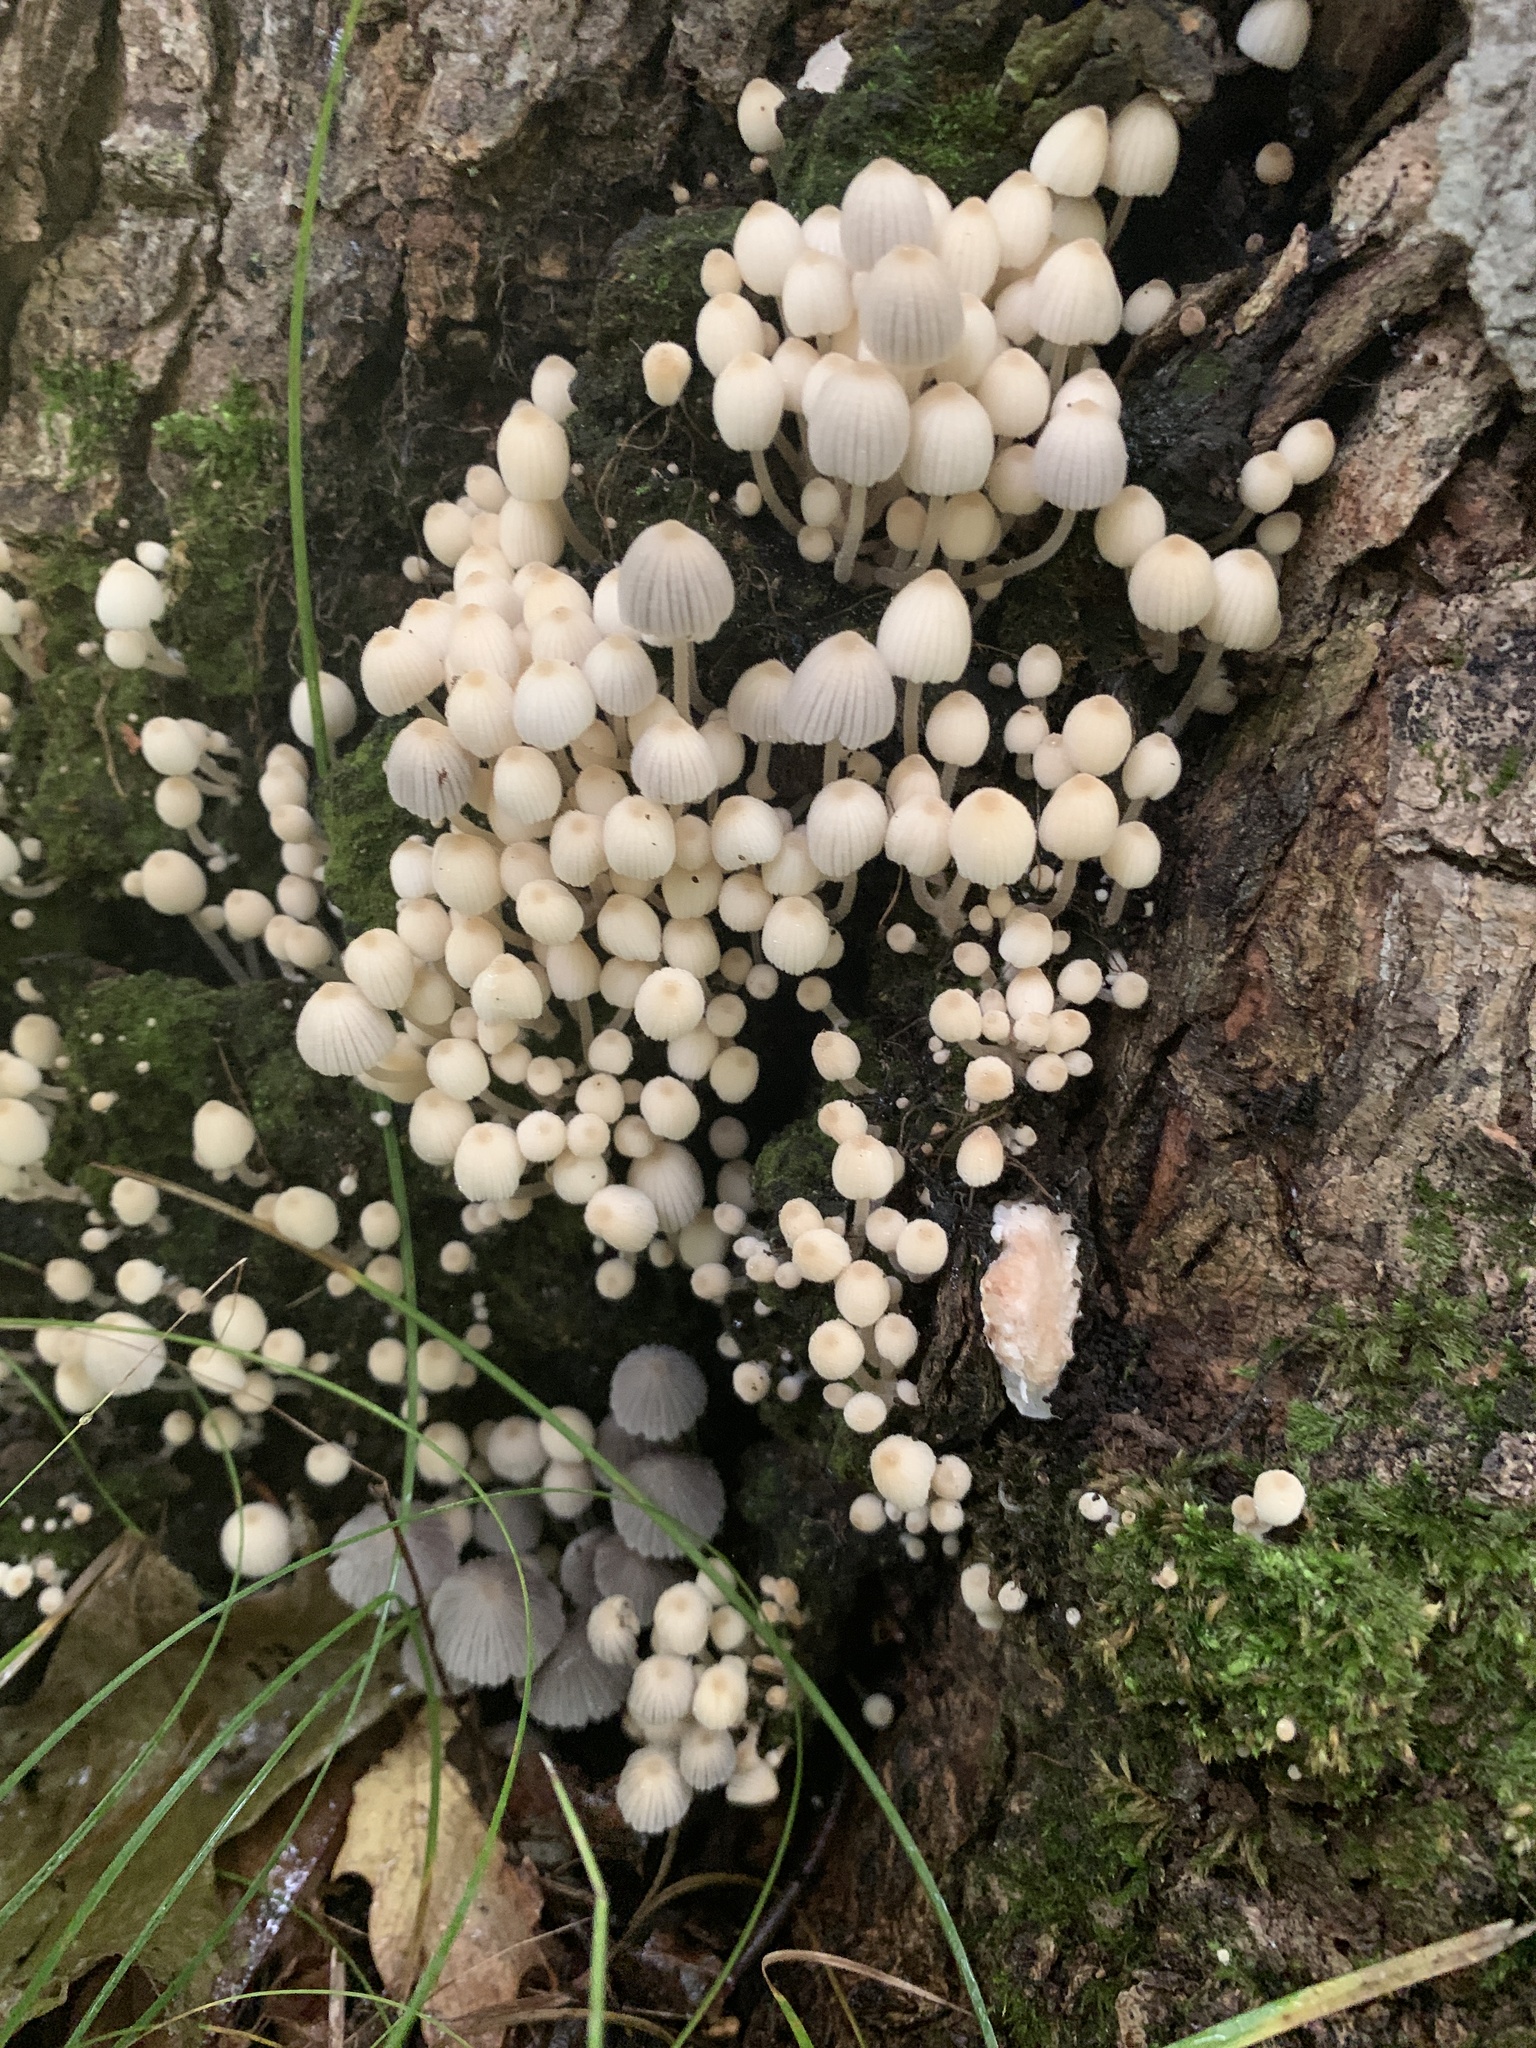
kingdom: Fungi
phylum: Basidiomycota
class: Agaricomycetes
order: Agaricales
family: Psathyrellaceae
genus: Coprinellus
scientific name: Coprinellus disseminatus
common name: Fairies' bonnets
